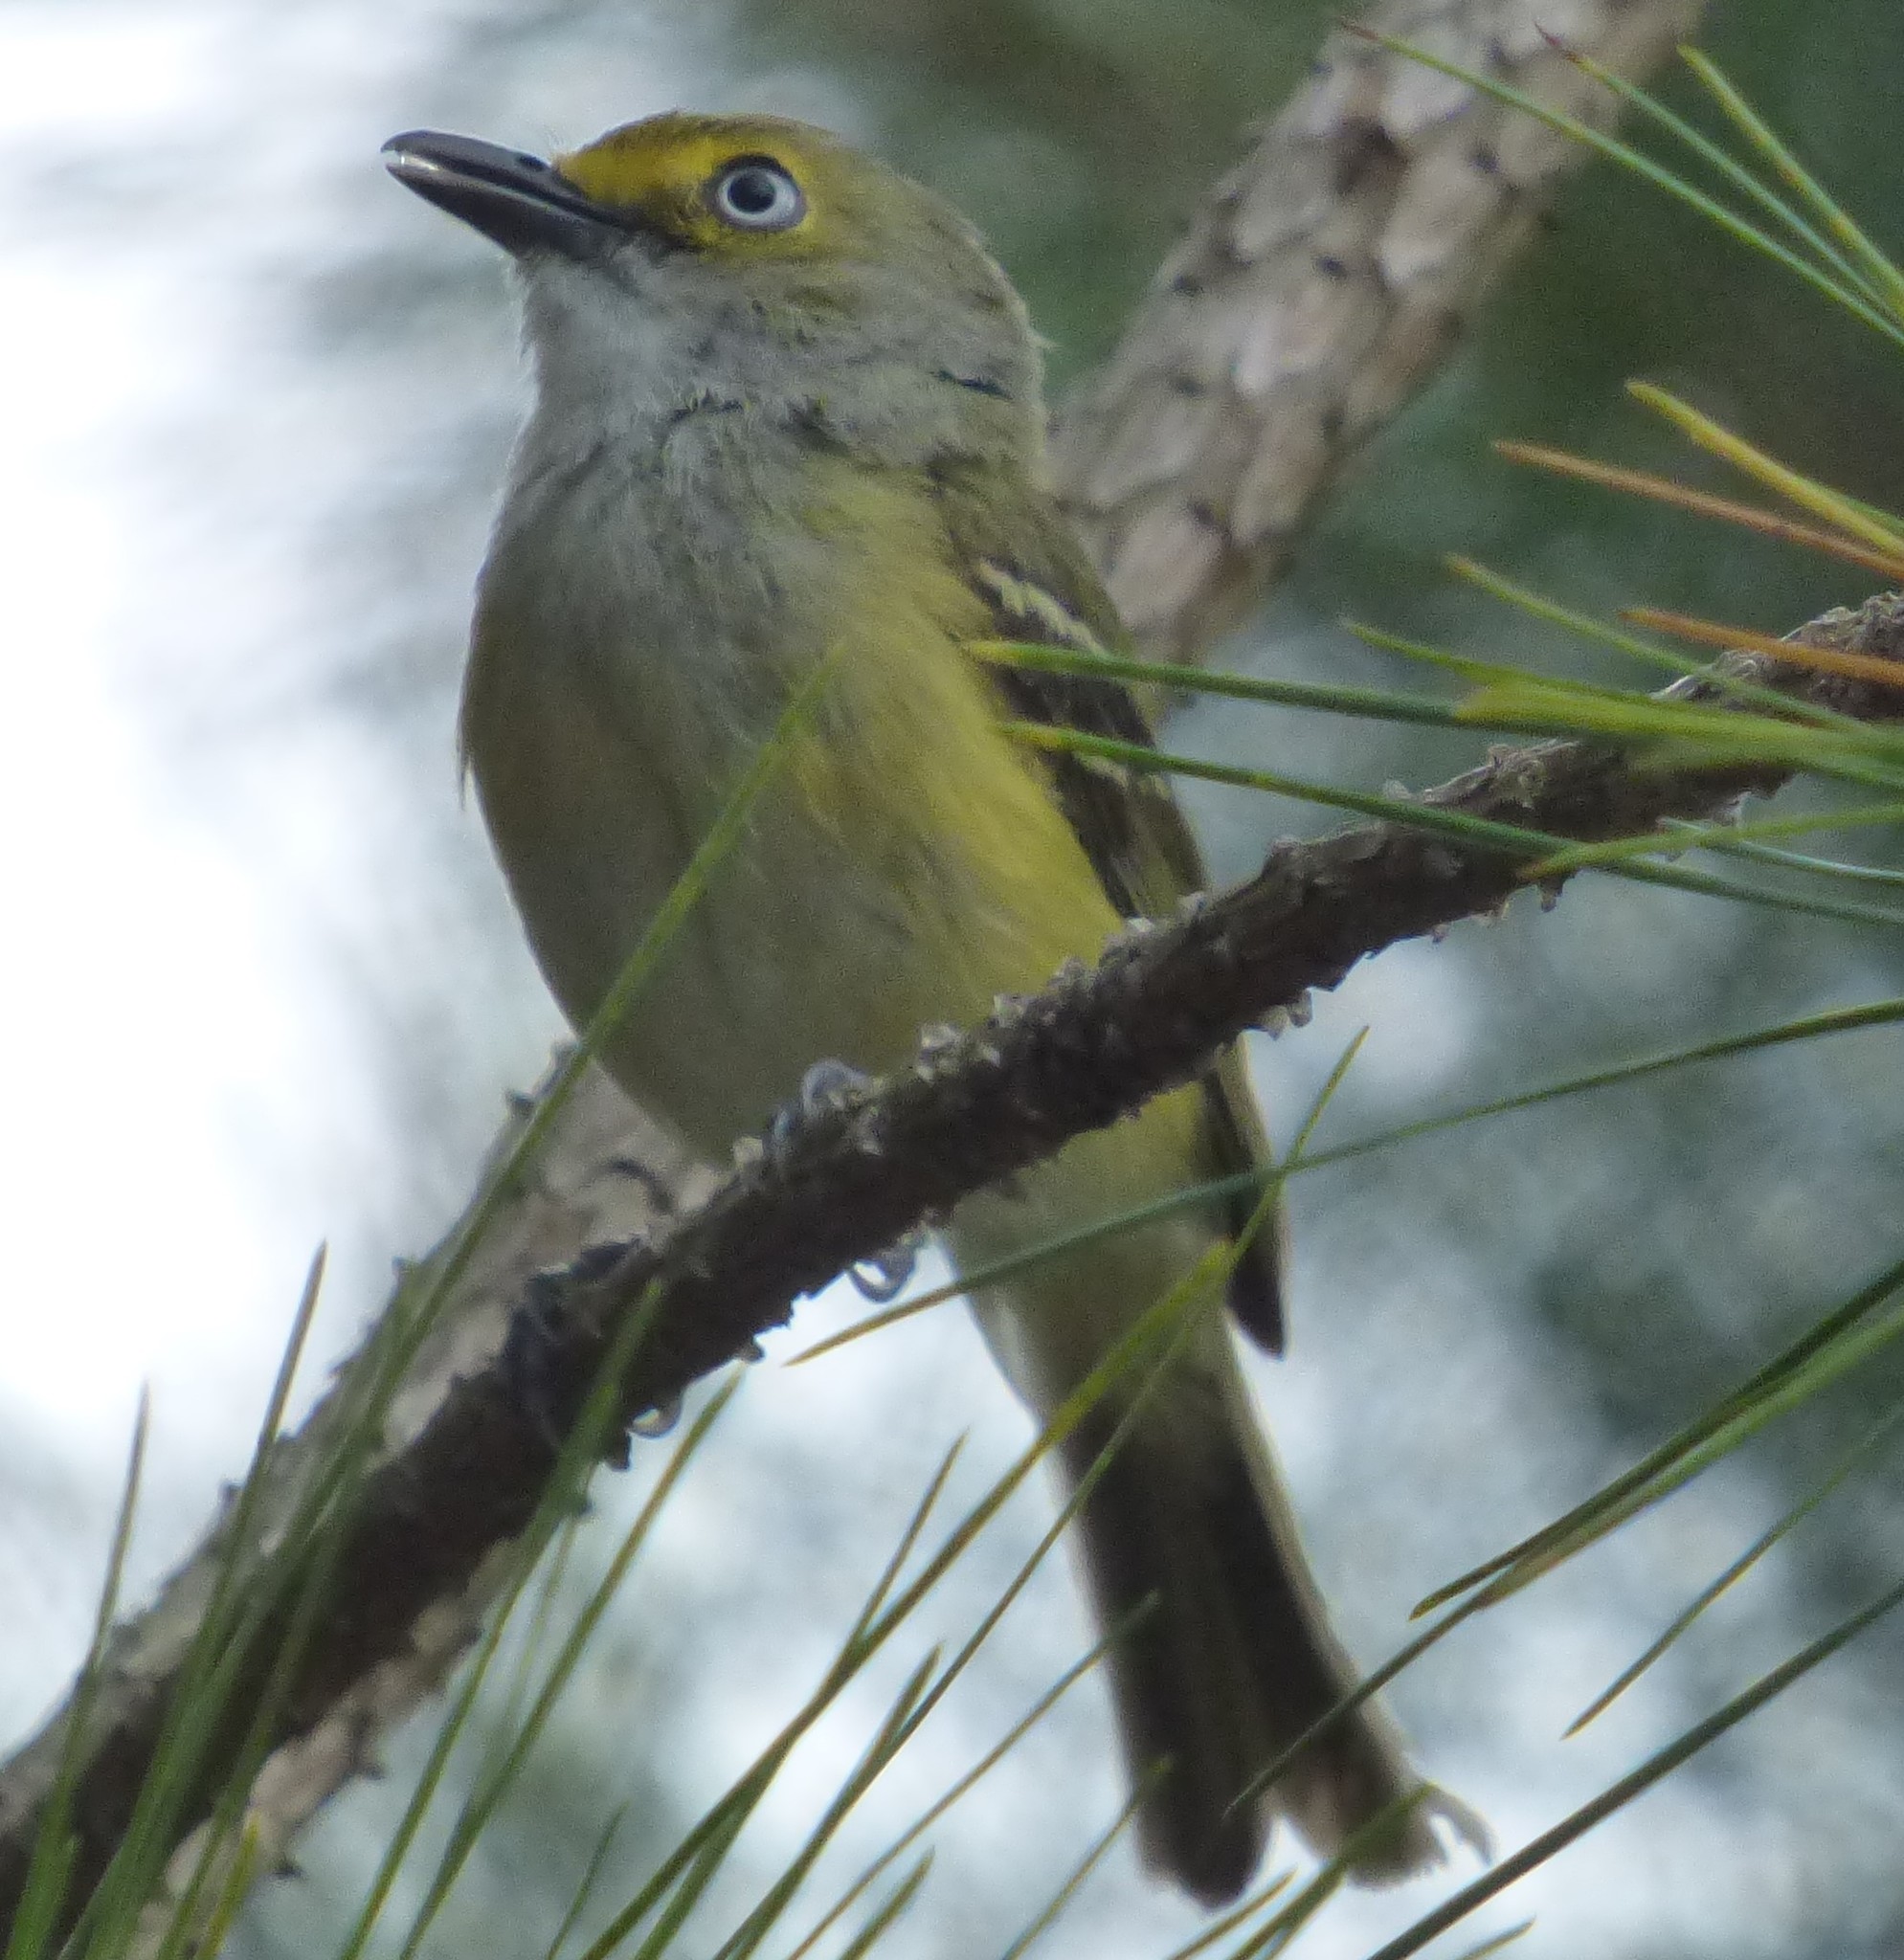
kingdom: Animalia
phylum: Chordata
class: Aves
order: Passeriformes
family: Vireonidae
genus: Vireo
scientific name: Vireo griseus
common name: White-eyed vireo
